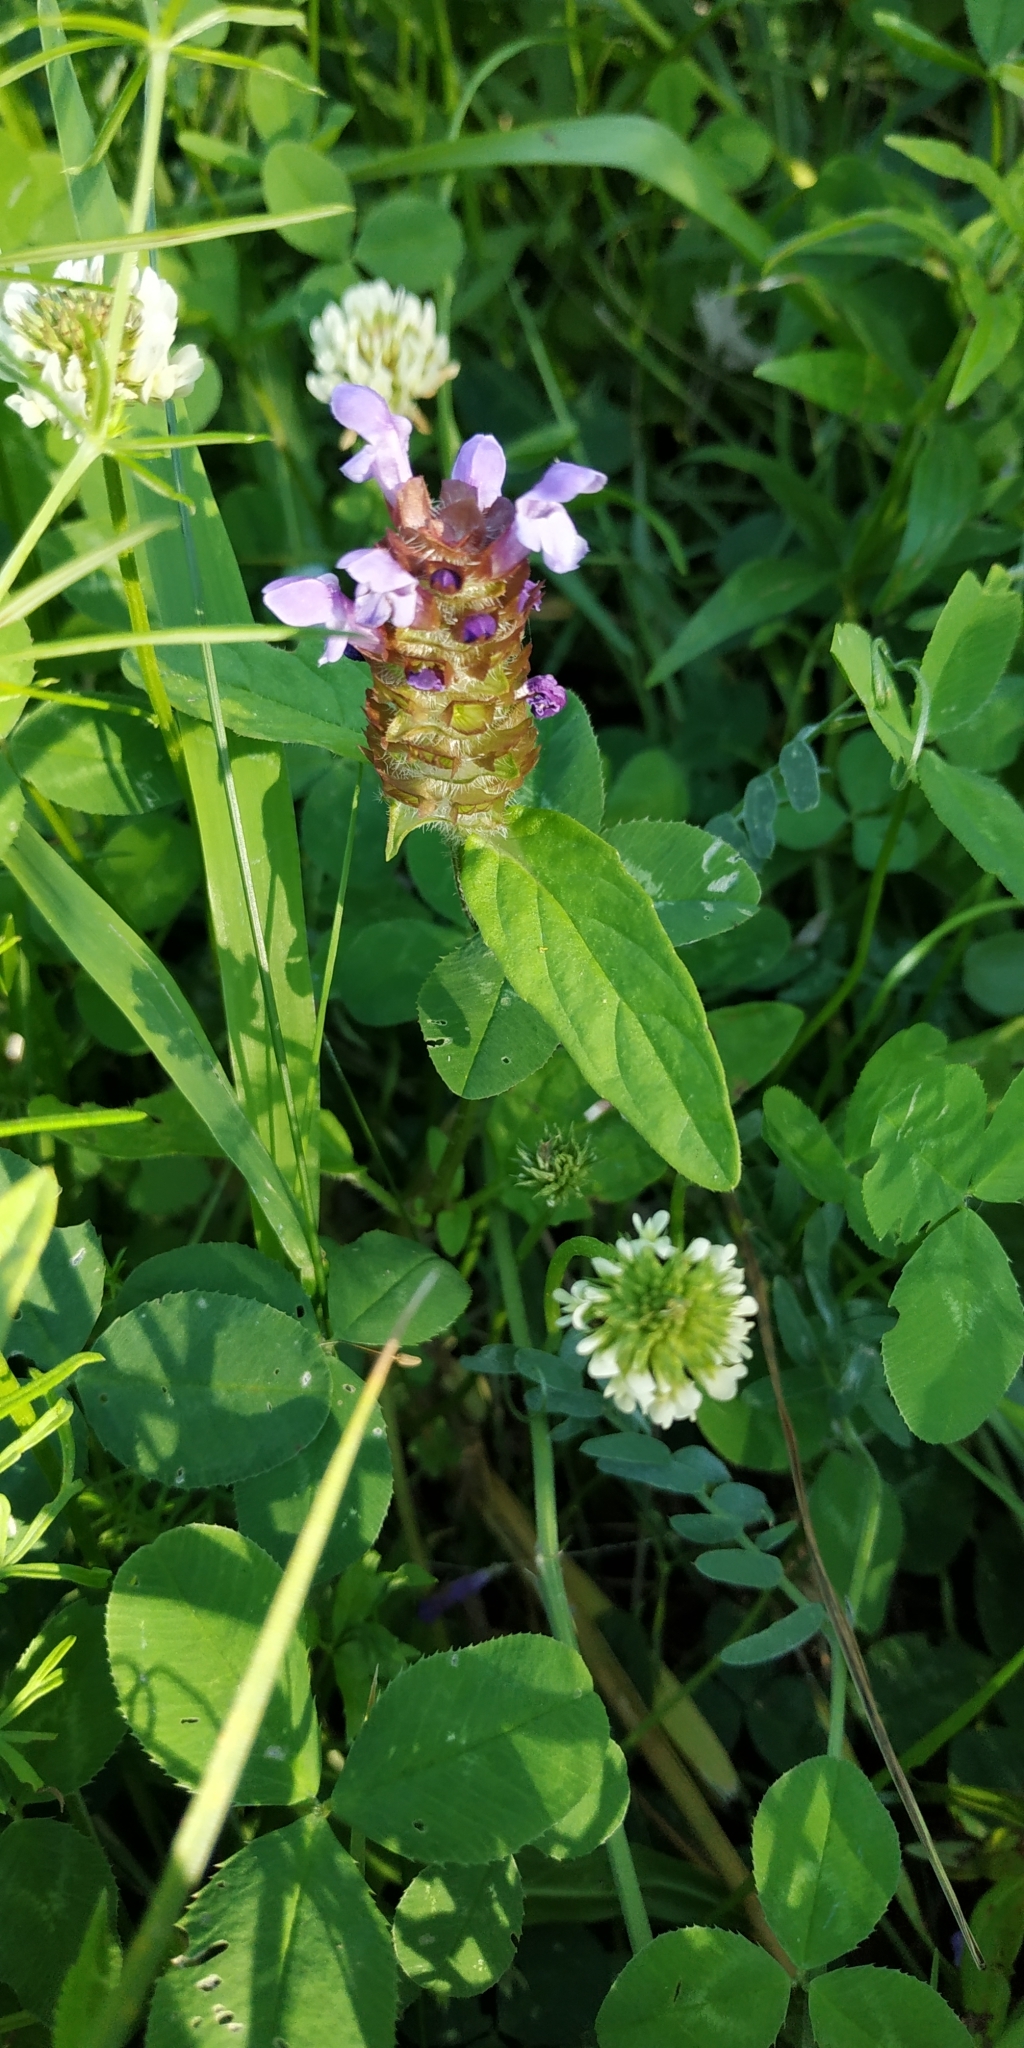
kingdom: Plantae
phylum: Tracheophyta
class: Magnoliopsida
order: Lamiales
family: Lamiaceae
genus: Prunella
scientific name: Prunella vulgaris
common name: Heal-all
